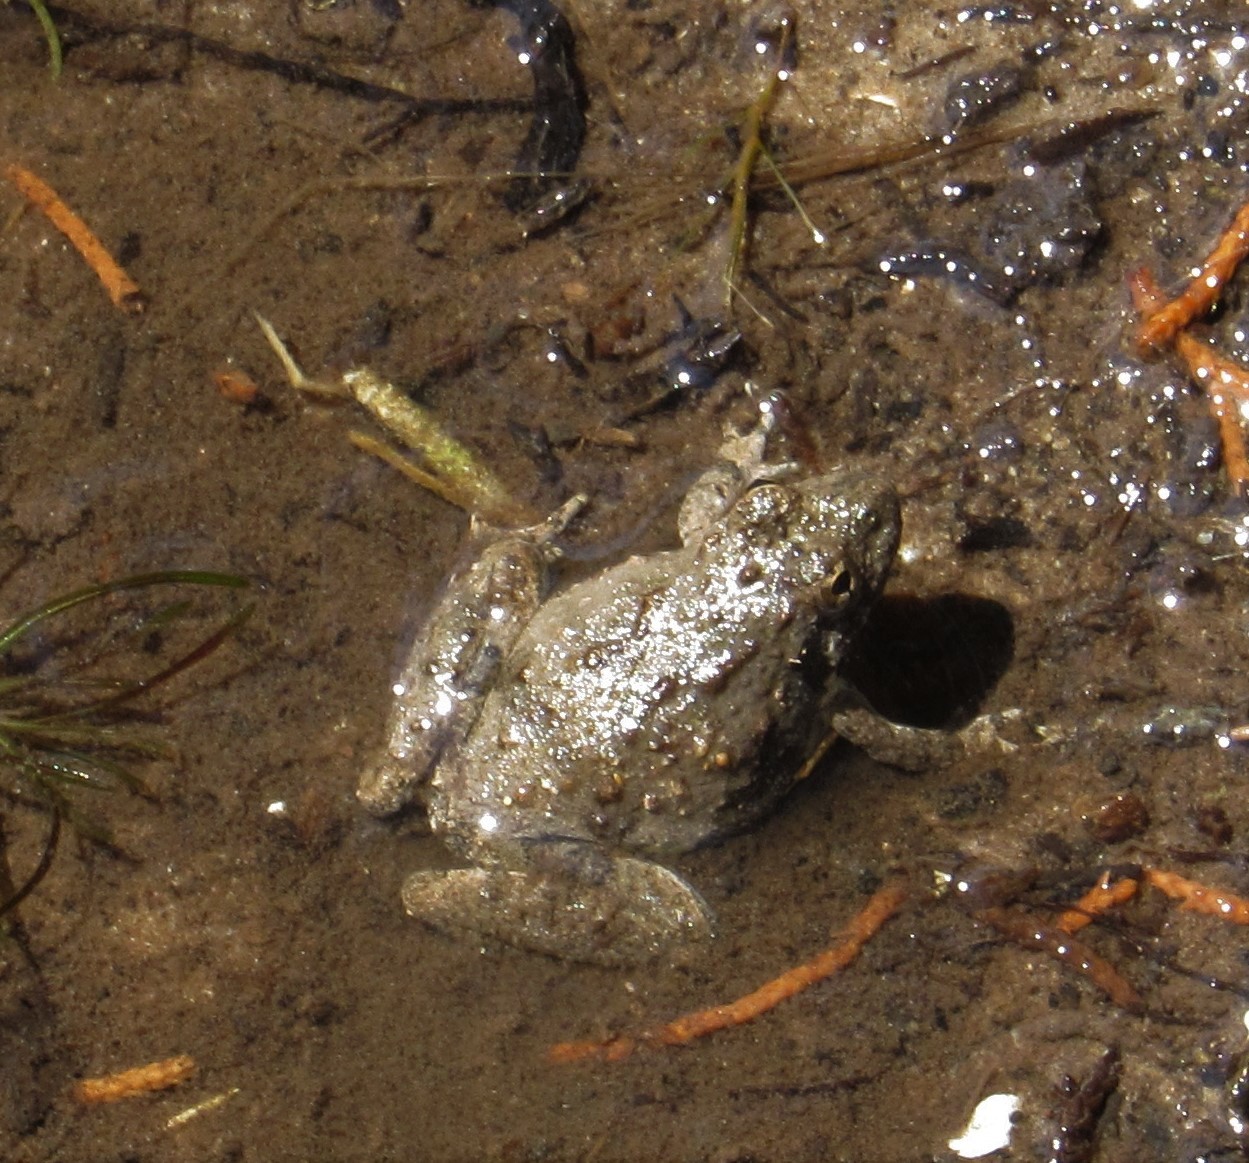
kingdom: Animalia
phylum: Chordata
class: Amphibia
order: Anura
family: Hylidae
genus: Acris
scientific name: Acris blanchardi
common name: Blanchard's cricket frog
